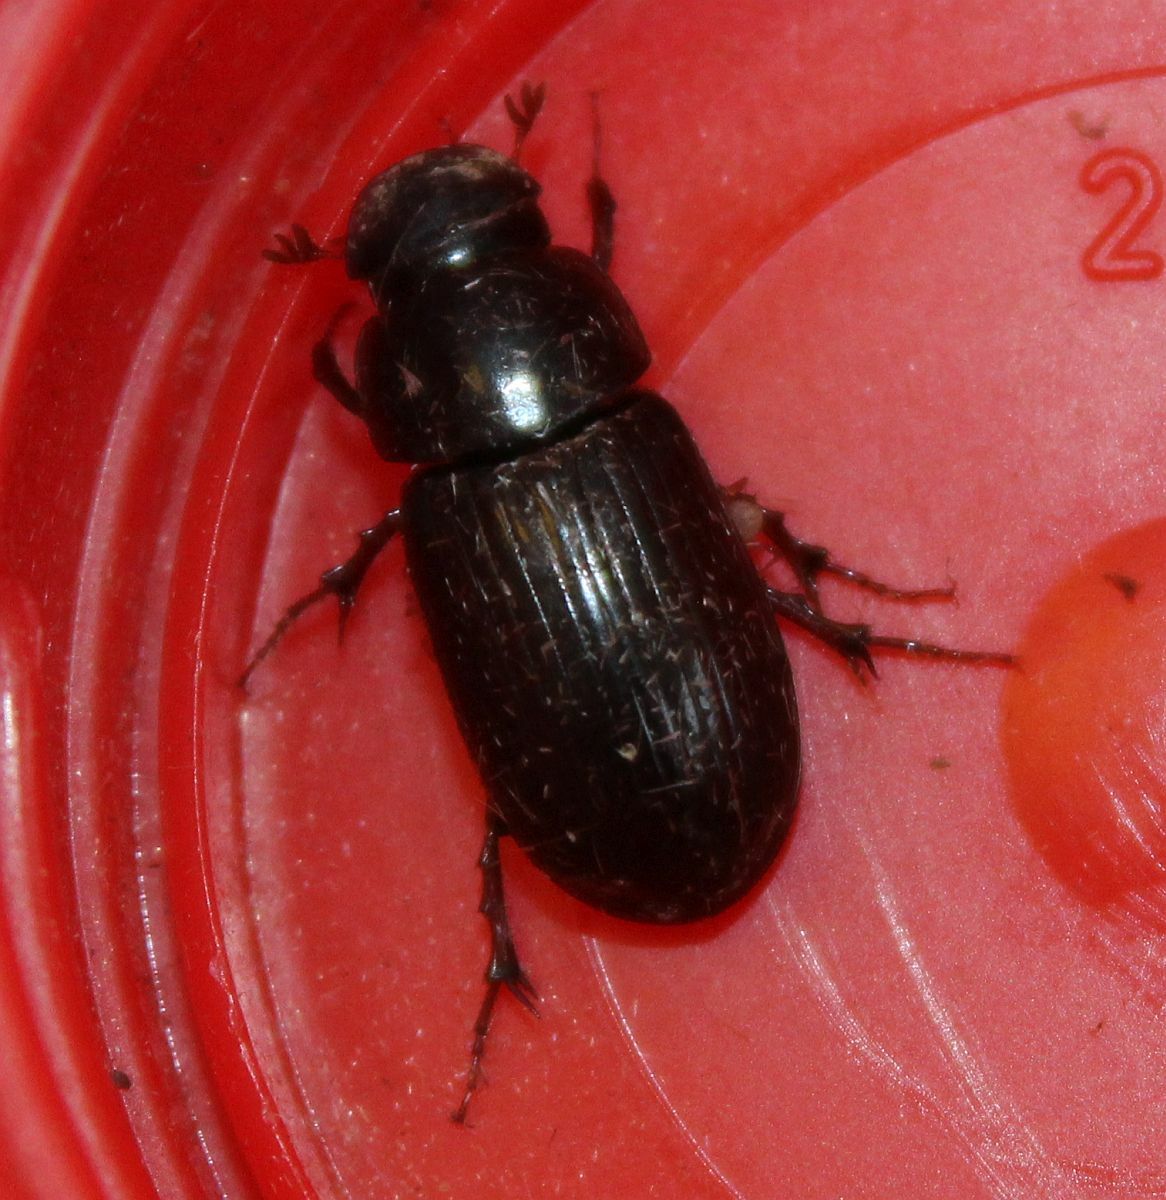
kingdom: Animalia
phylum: Arthropoda
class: Insecta
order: Coleoptera
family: Scarabaeidae
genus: Acrossus
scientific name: Acrossus rufipes
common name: Night-flying dung beetle
